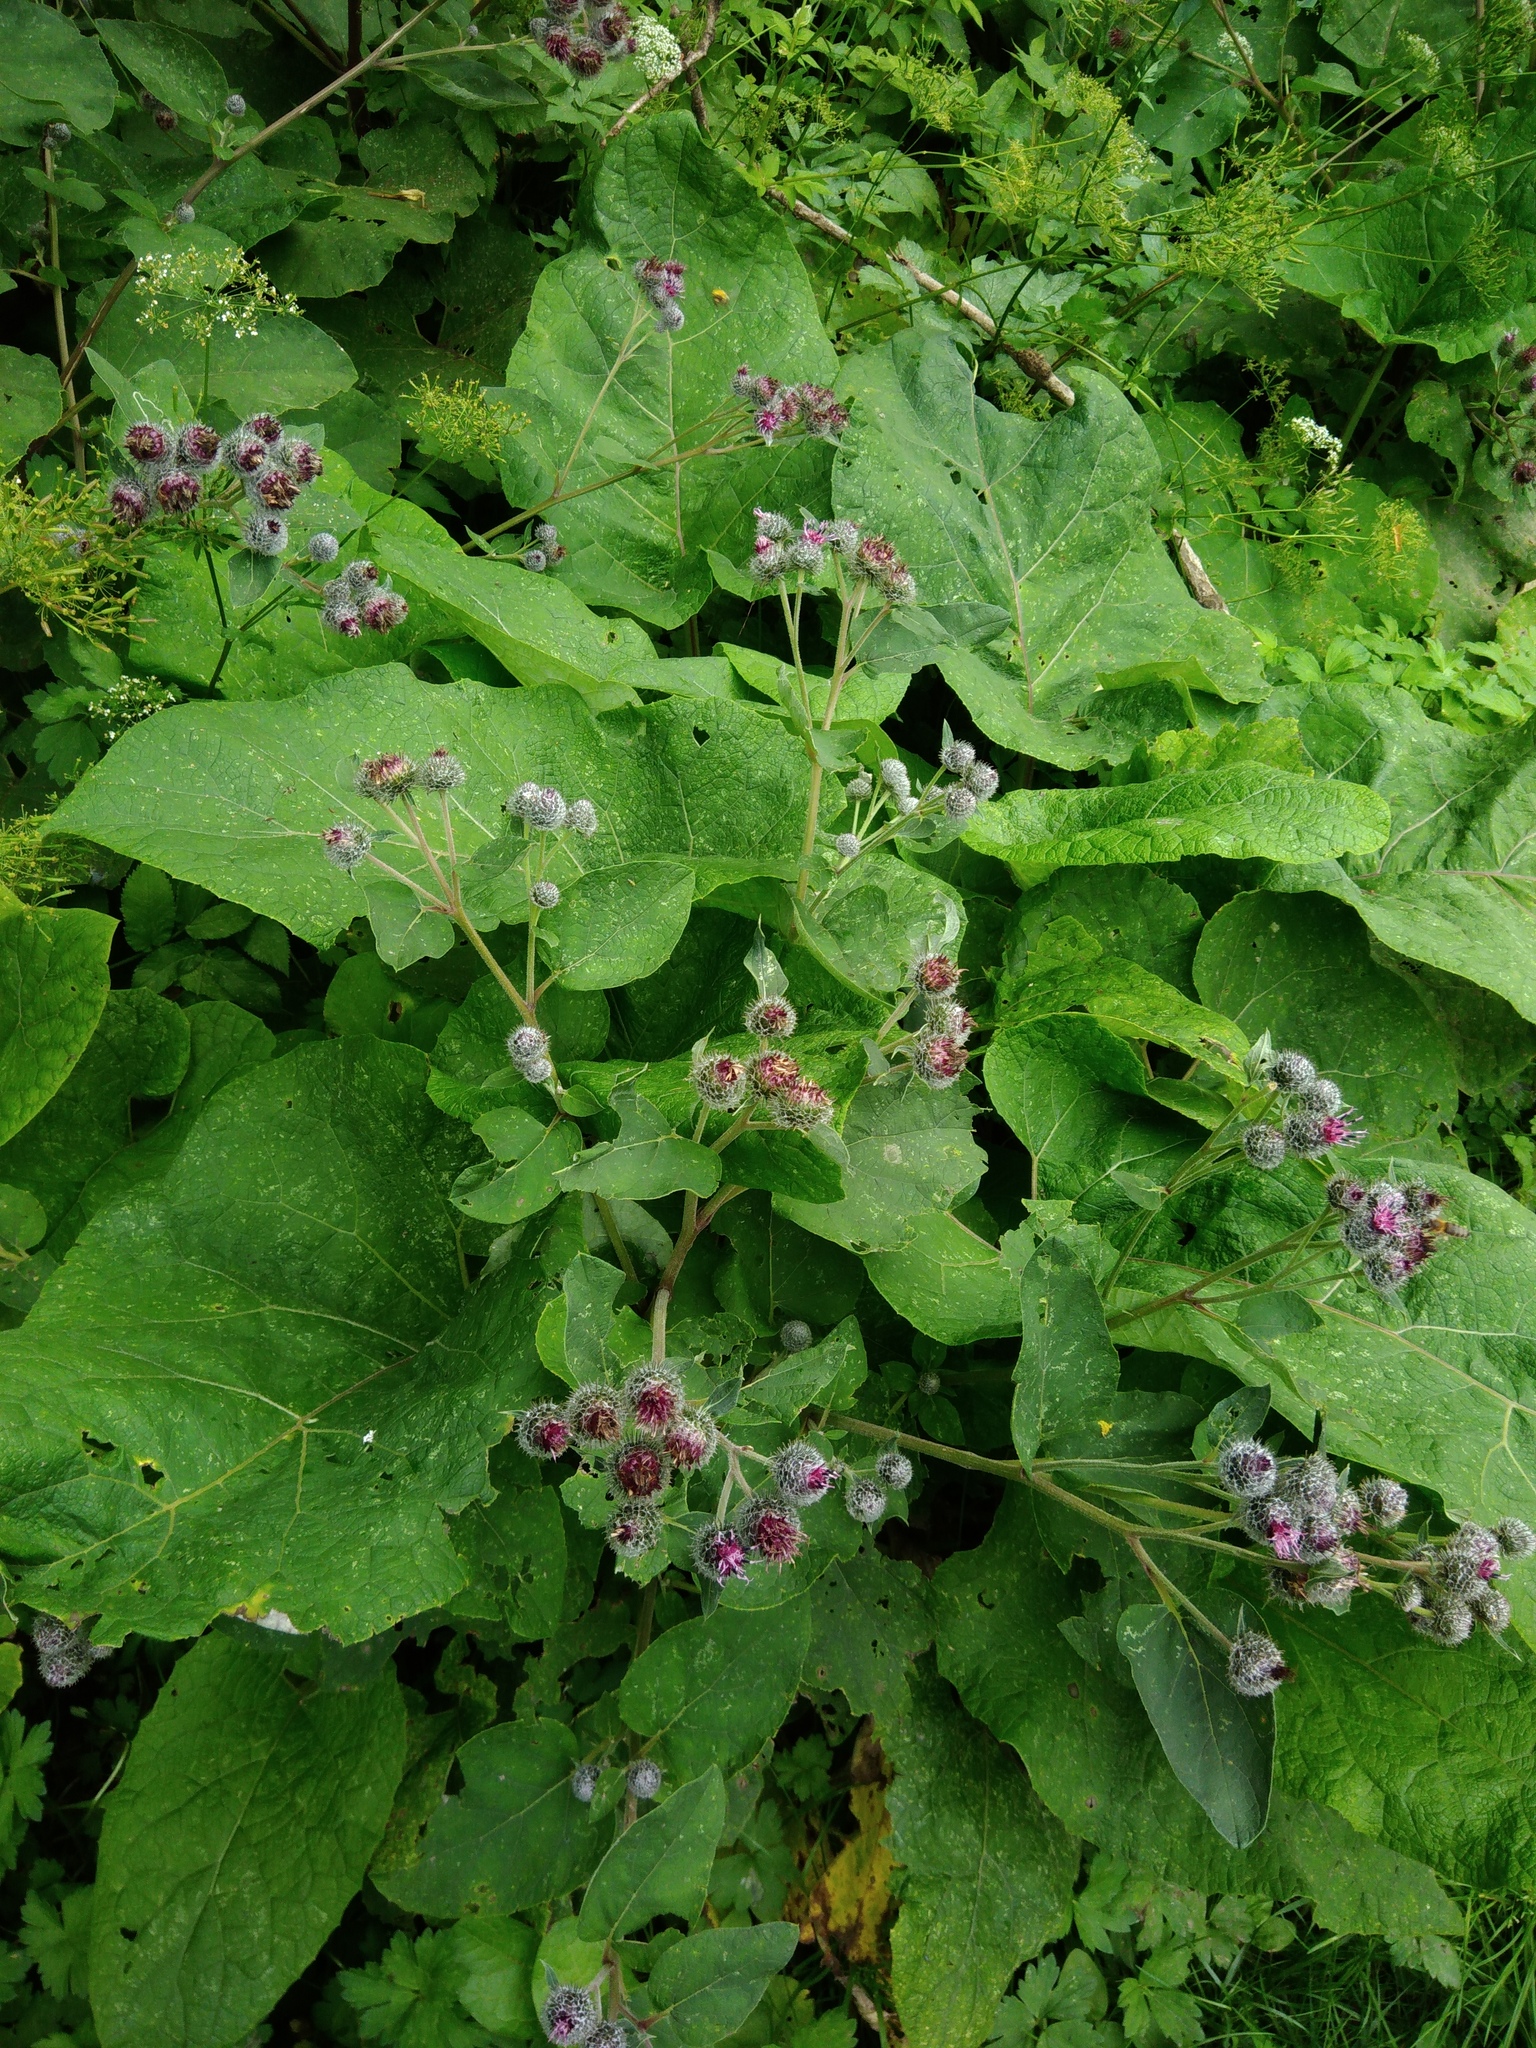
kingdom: Plantae
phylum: Tracheophyta
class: Magnoliopsida
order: Asterales
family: Asteraceae
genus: Arctium
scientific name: Arctium tomentosum
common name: Woolly burdock
